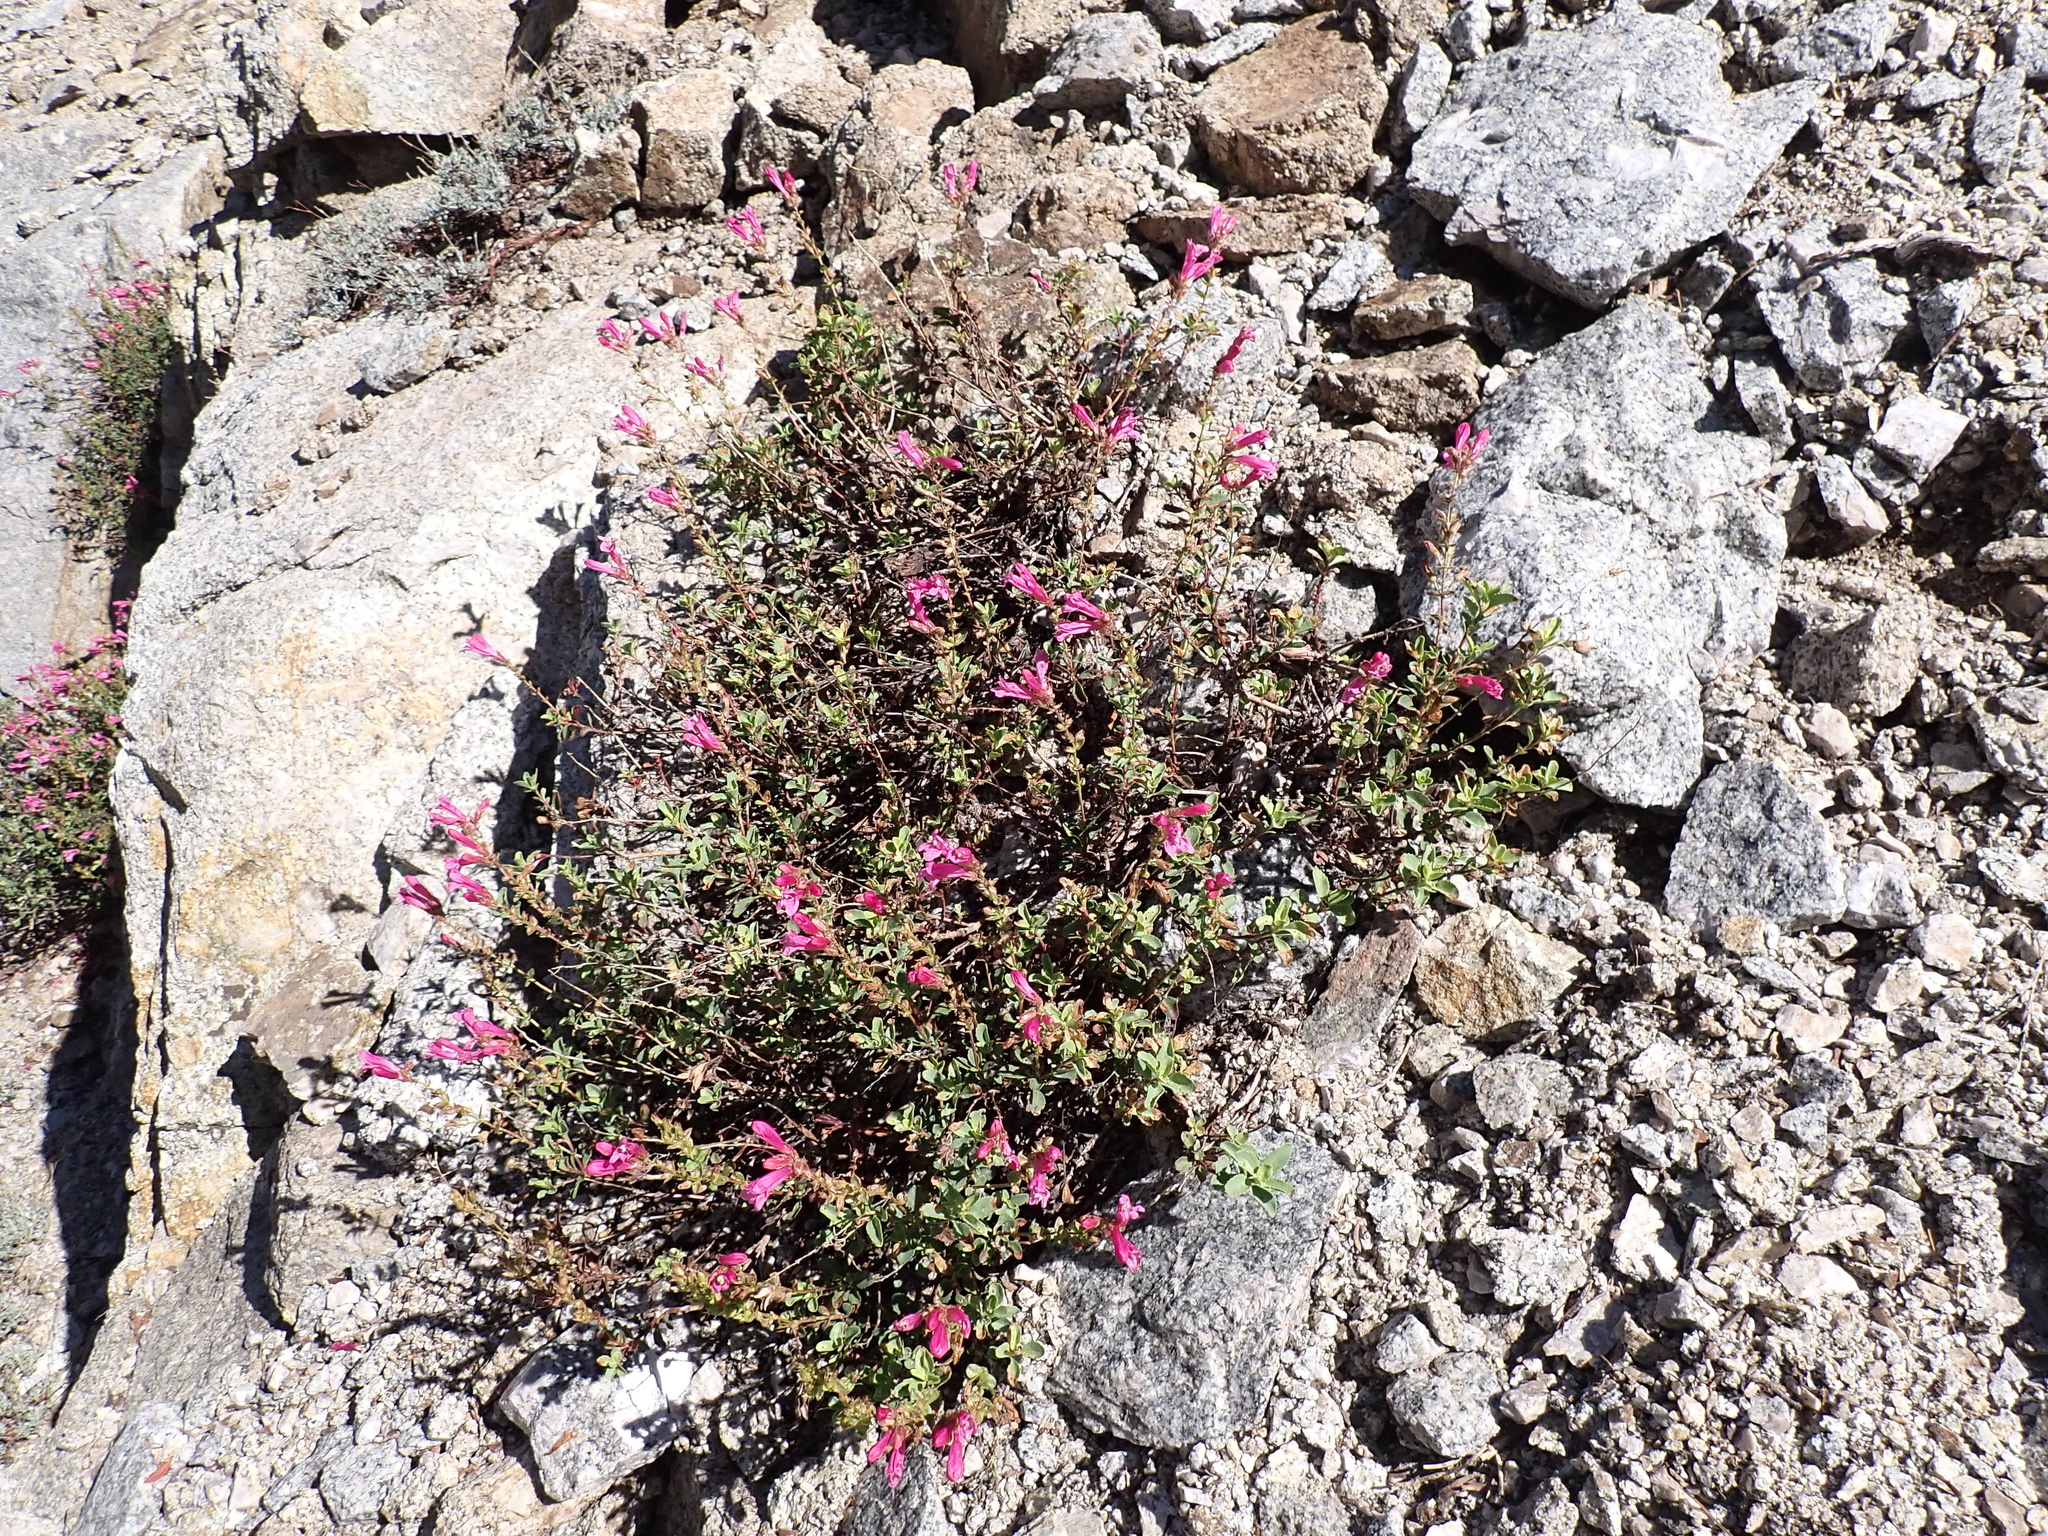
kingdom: Plantae
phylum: Tracheophyta
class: Magnoliopsida
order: Lamiales
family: Plantaginaceae
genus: Penstemon
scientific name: Penstemon newberryi
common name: Mountain-pride
